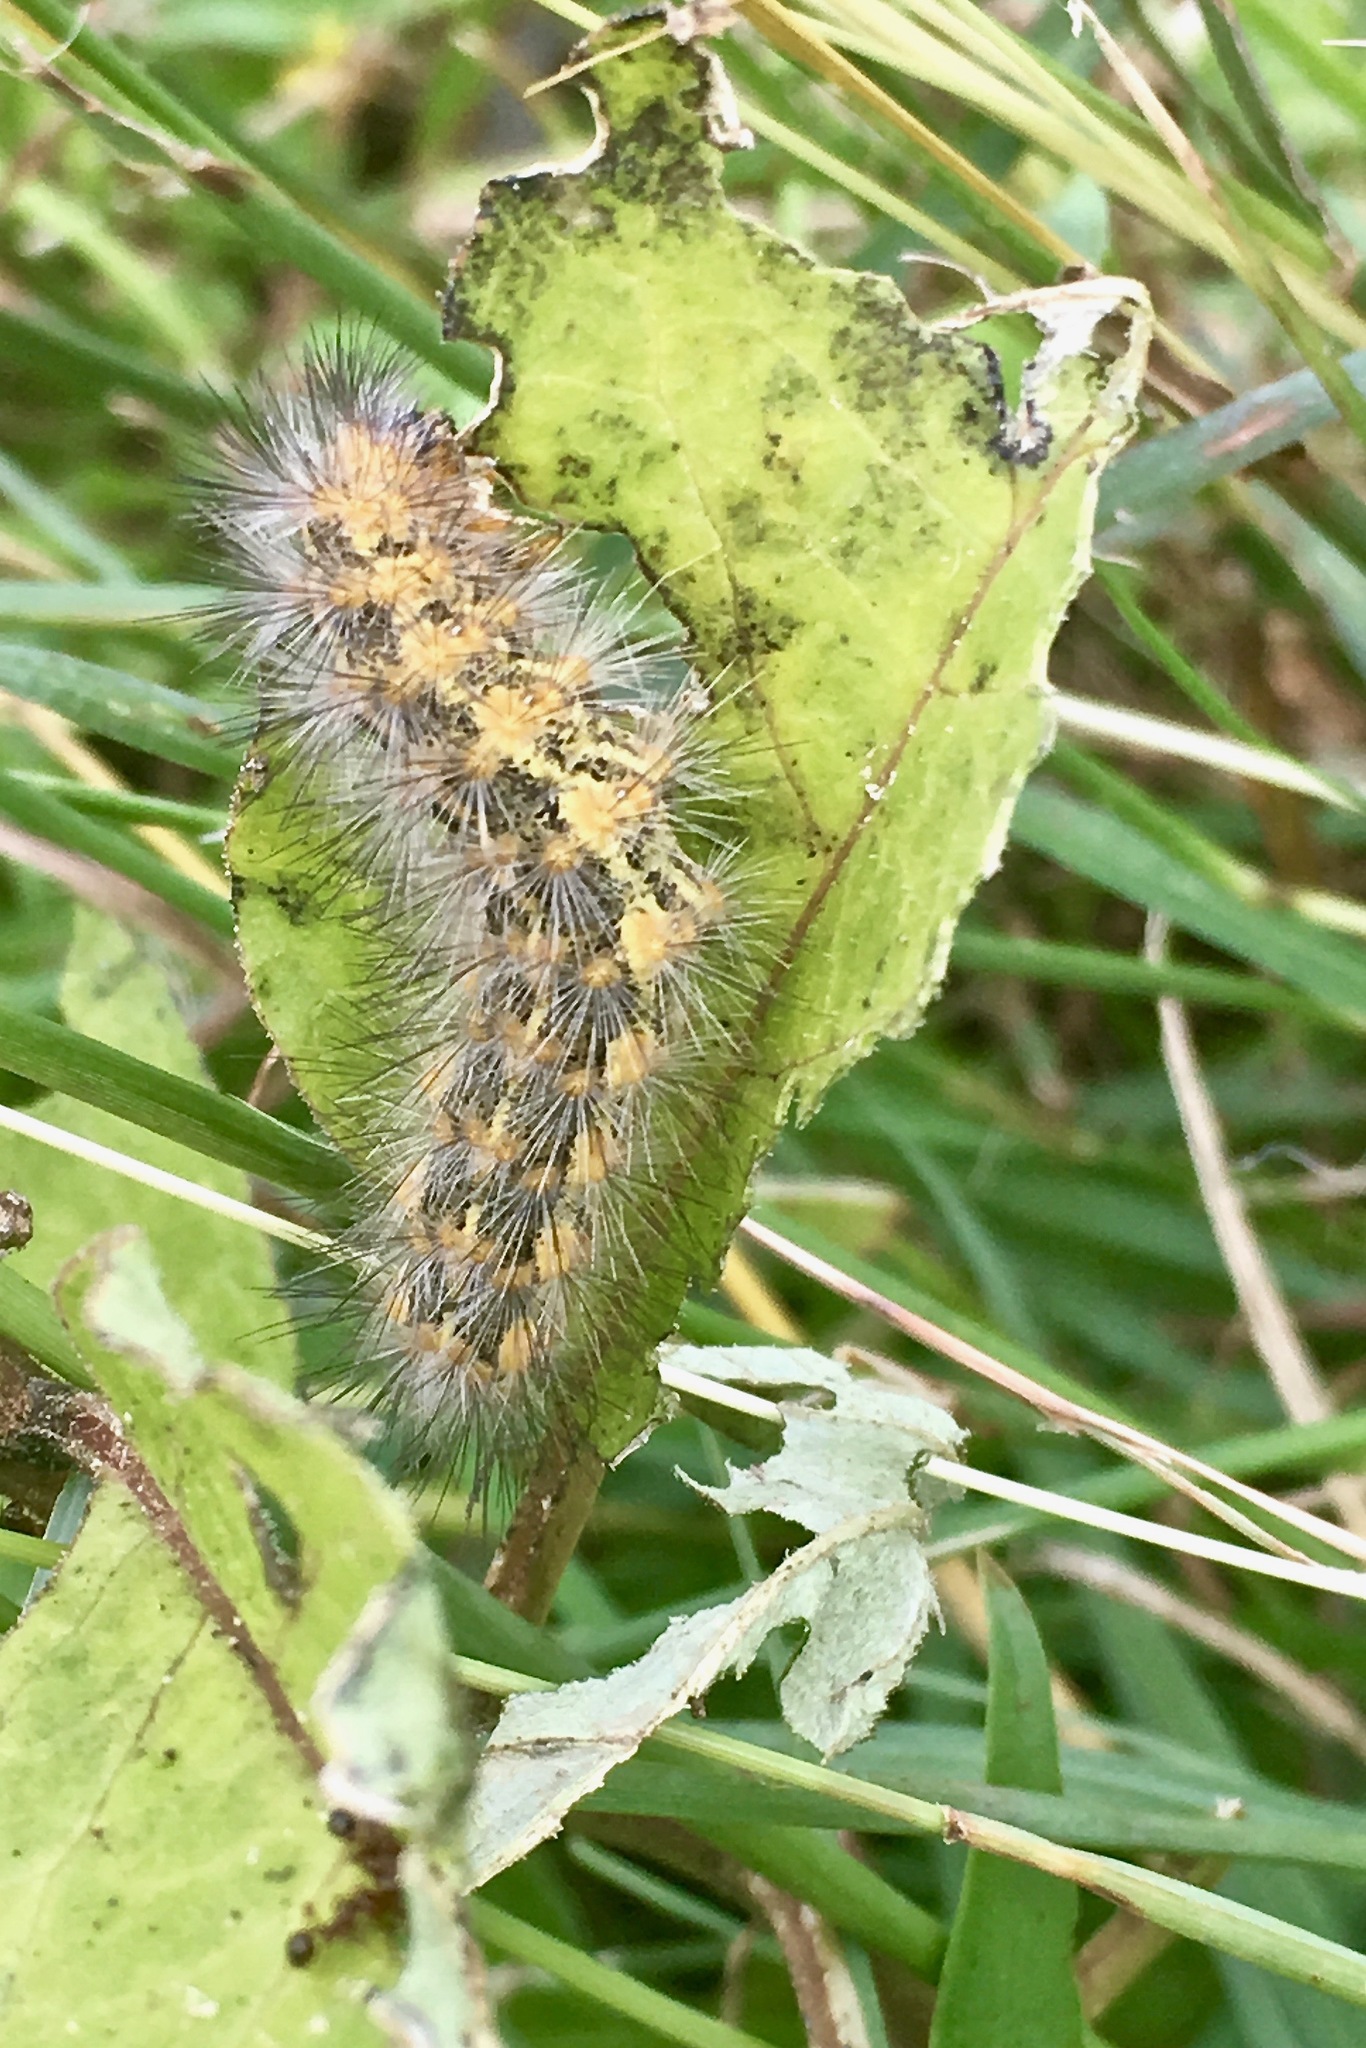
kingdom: Animalia
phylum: Arthropoda
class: Insecta
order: Lepidoptera
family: Erebidae
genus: Estigmene
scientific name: Estigmene acrea
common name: Salt marsh moth
